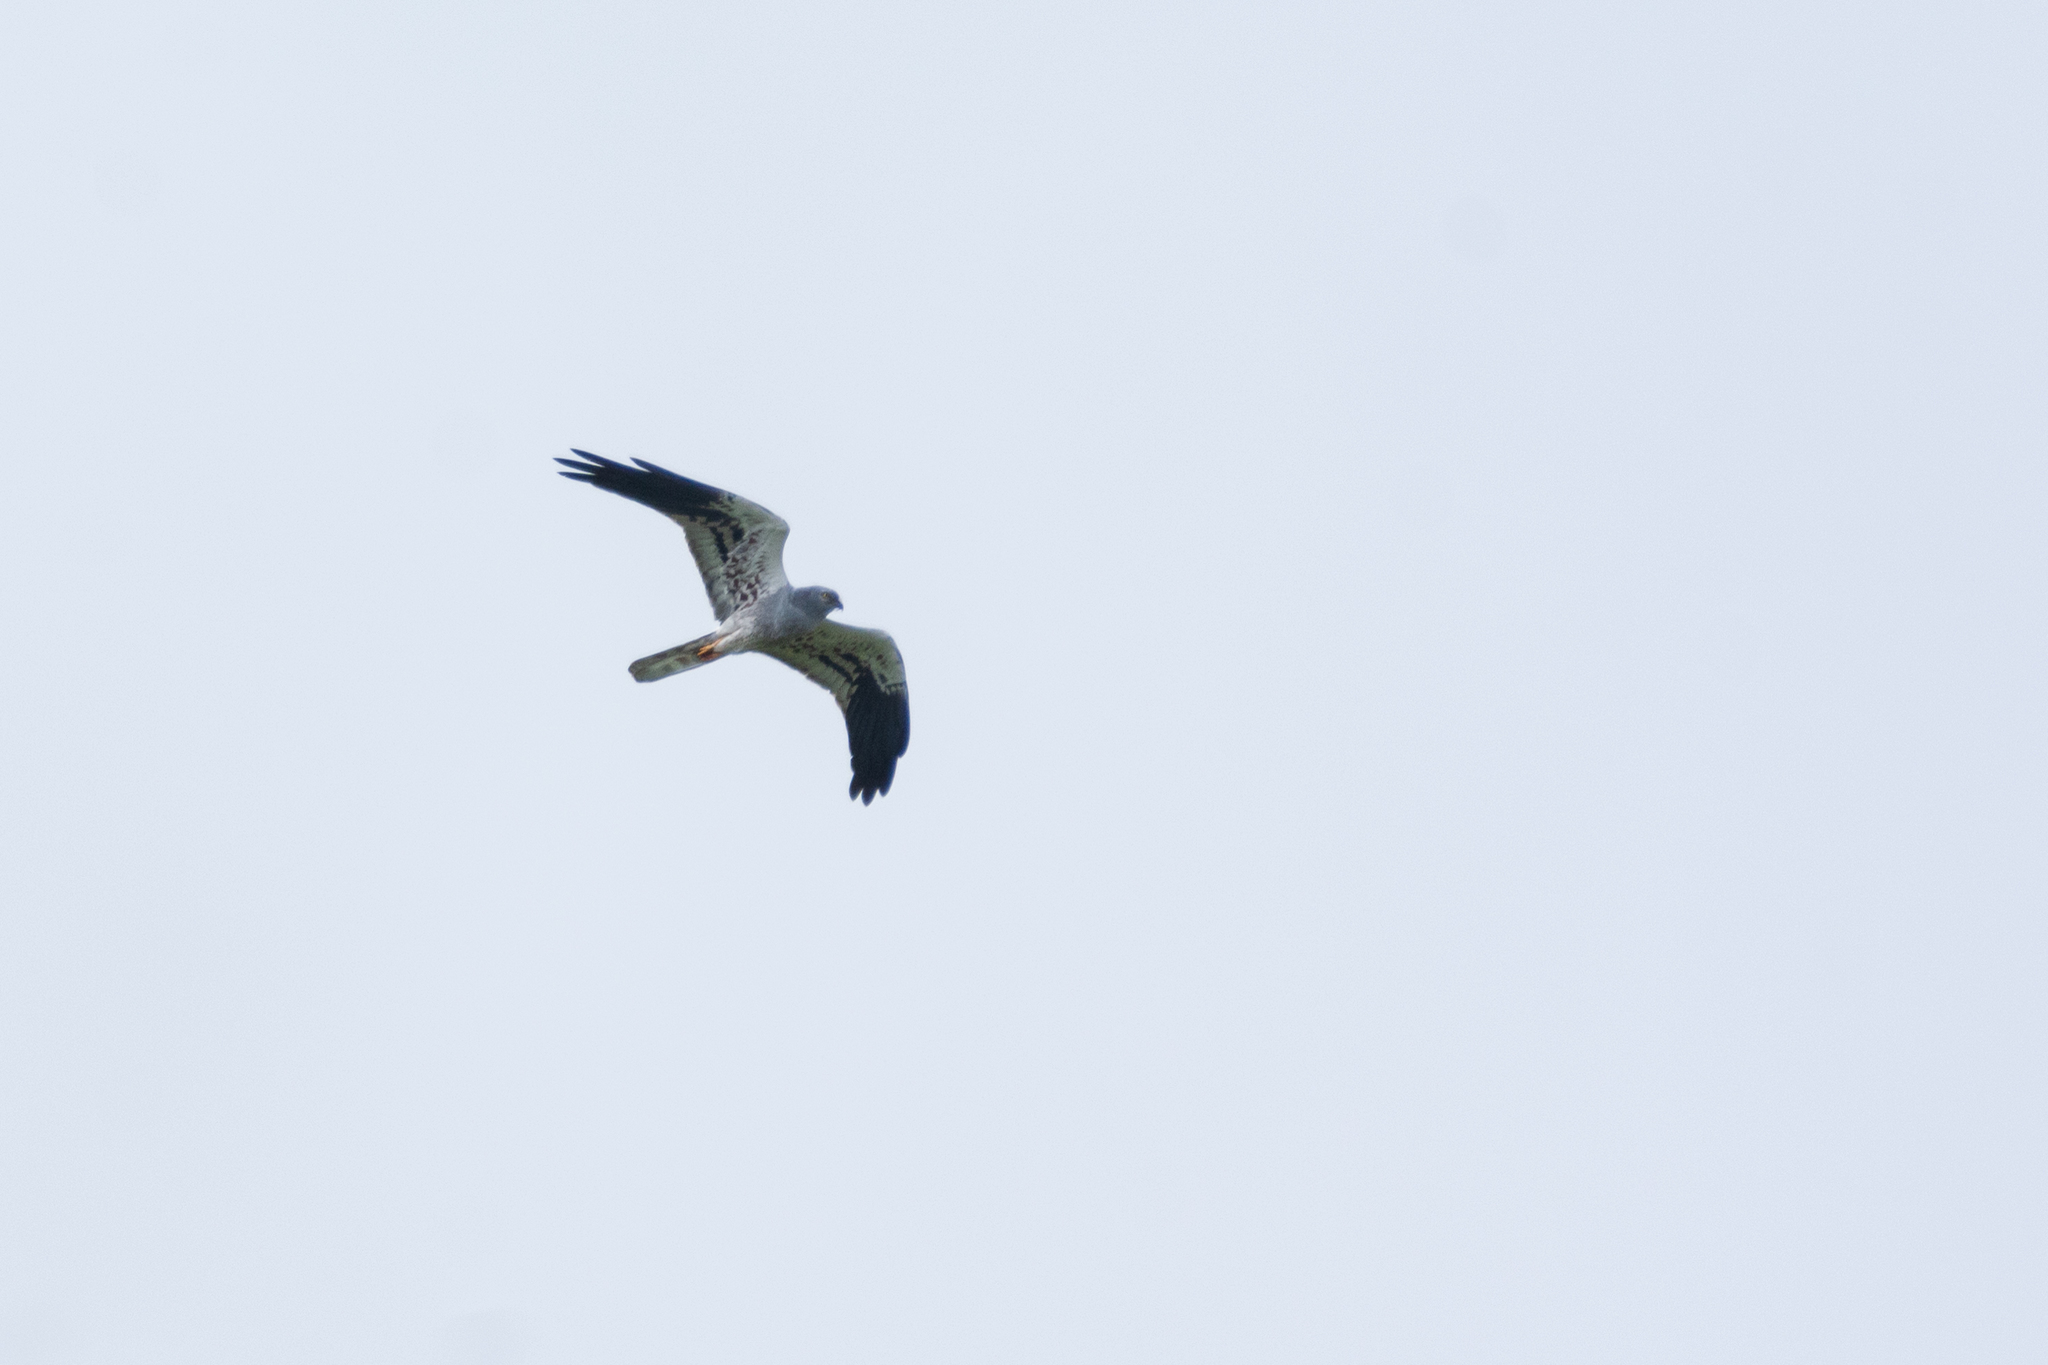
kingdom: Animalia
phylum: Chordata
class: Aves
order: Accipitriformes
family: Accipitridae
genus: Circus
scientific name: Circus pygargus
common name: Montagu's harrier
